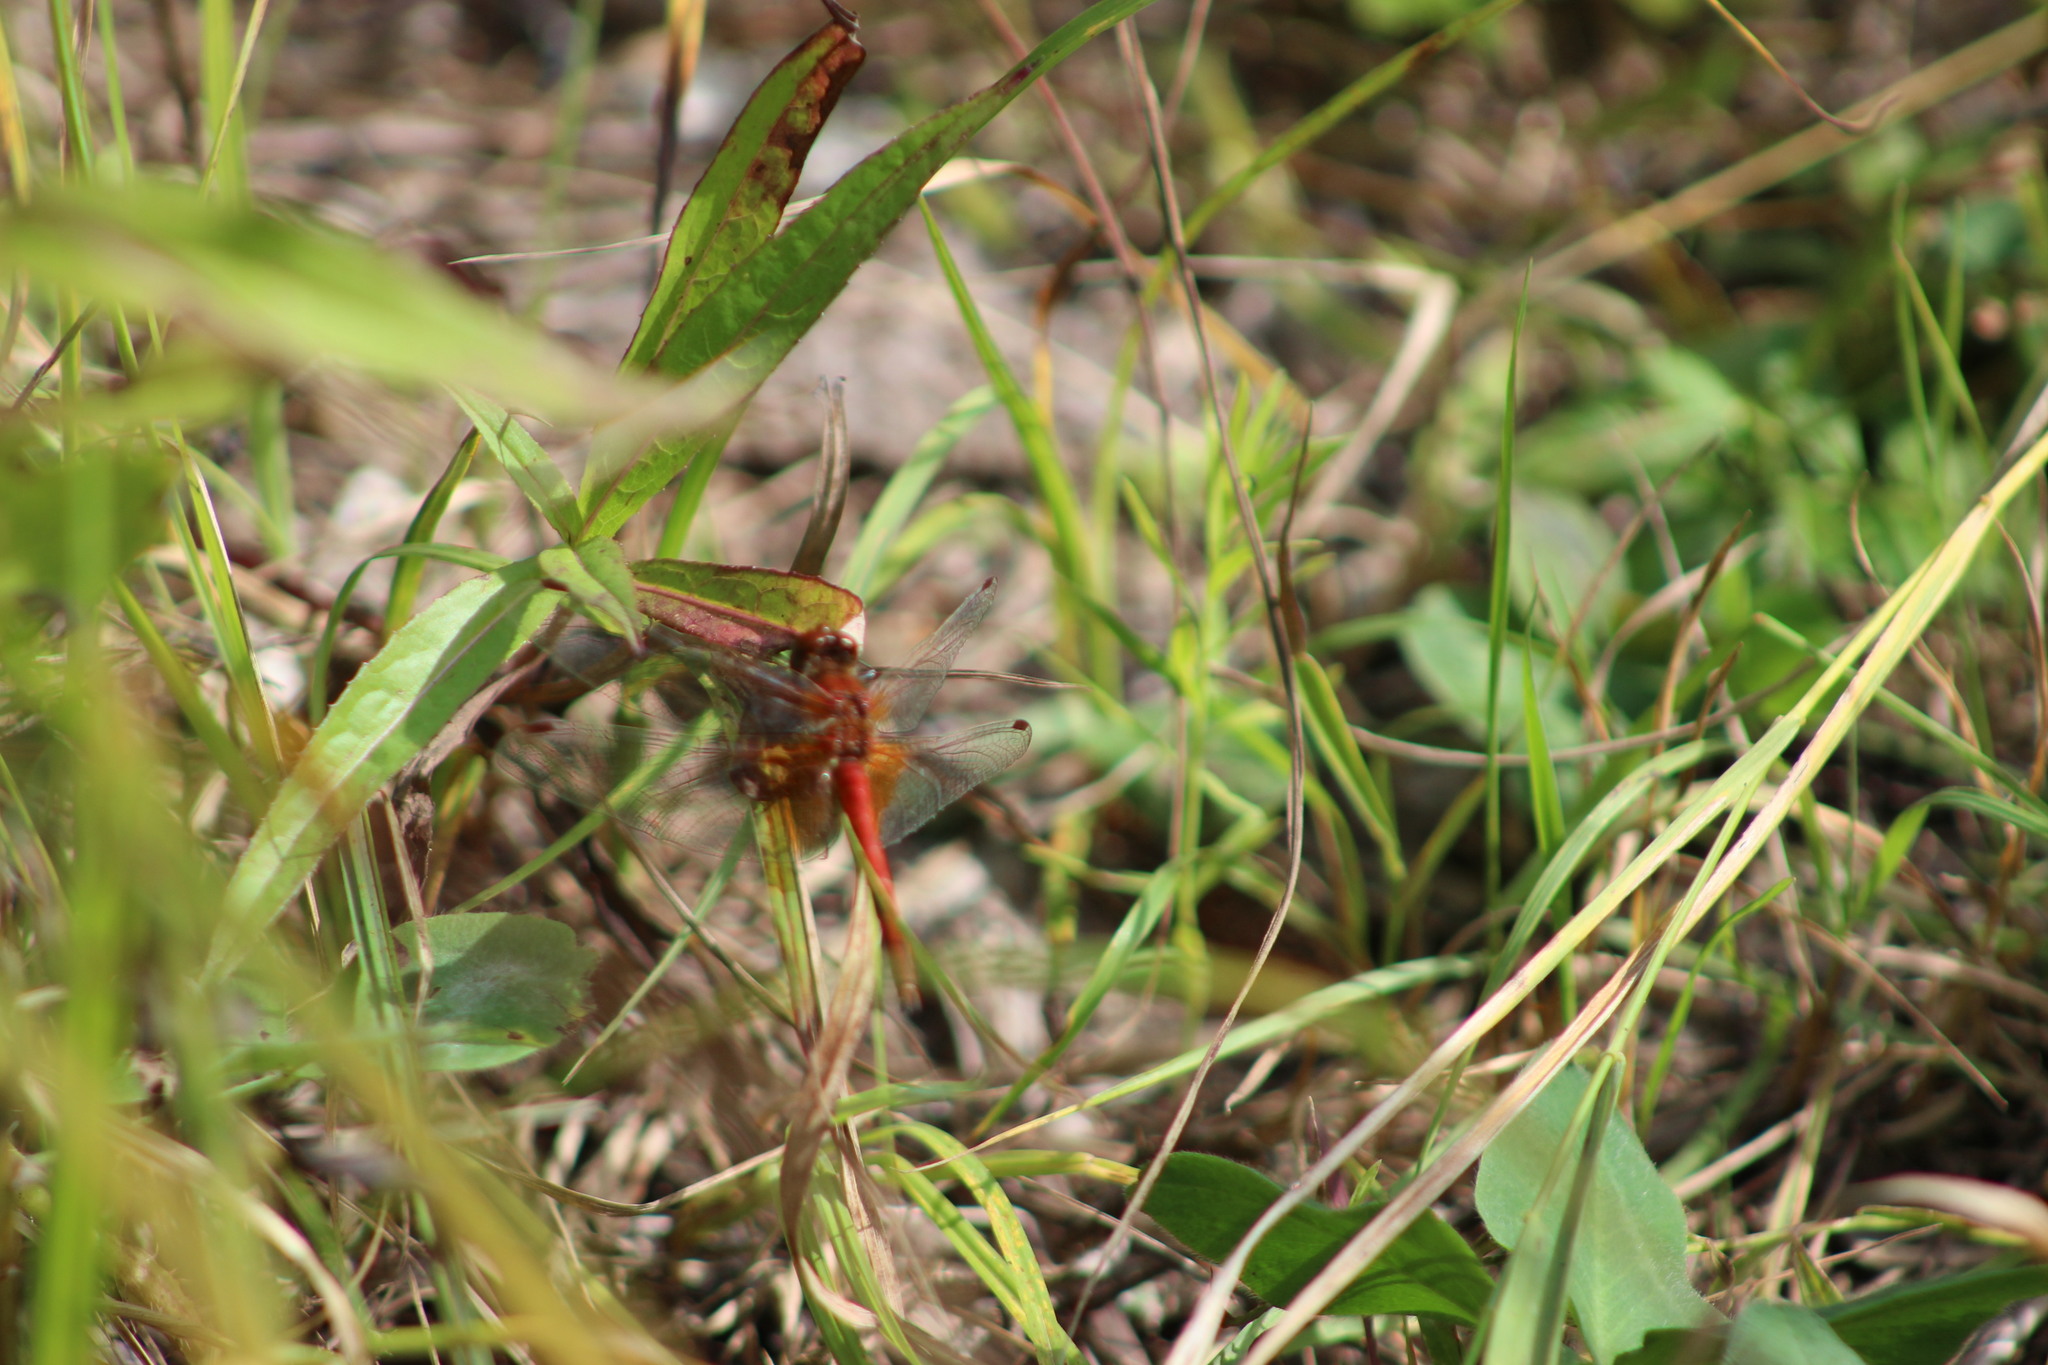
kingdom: Animalia
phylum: Arthropoda
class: Insecta
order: Odonata
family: Libellulidae
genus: Sympetrum
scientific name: Sympetrum flaveolum
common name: Yellow-winged darter
